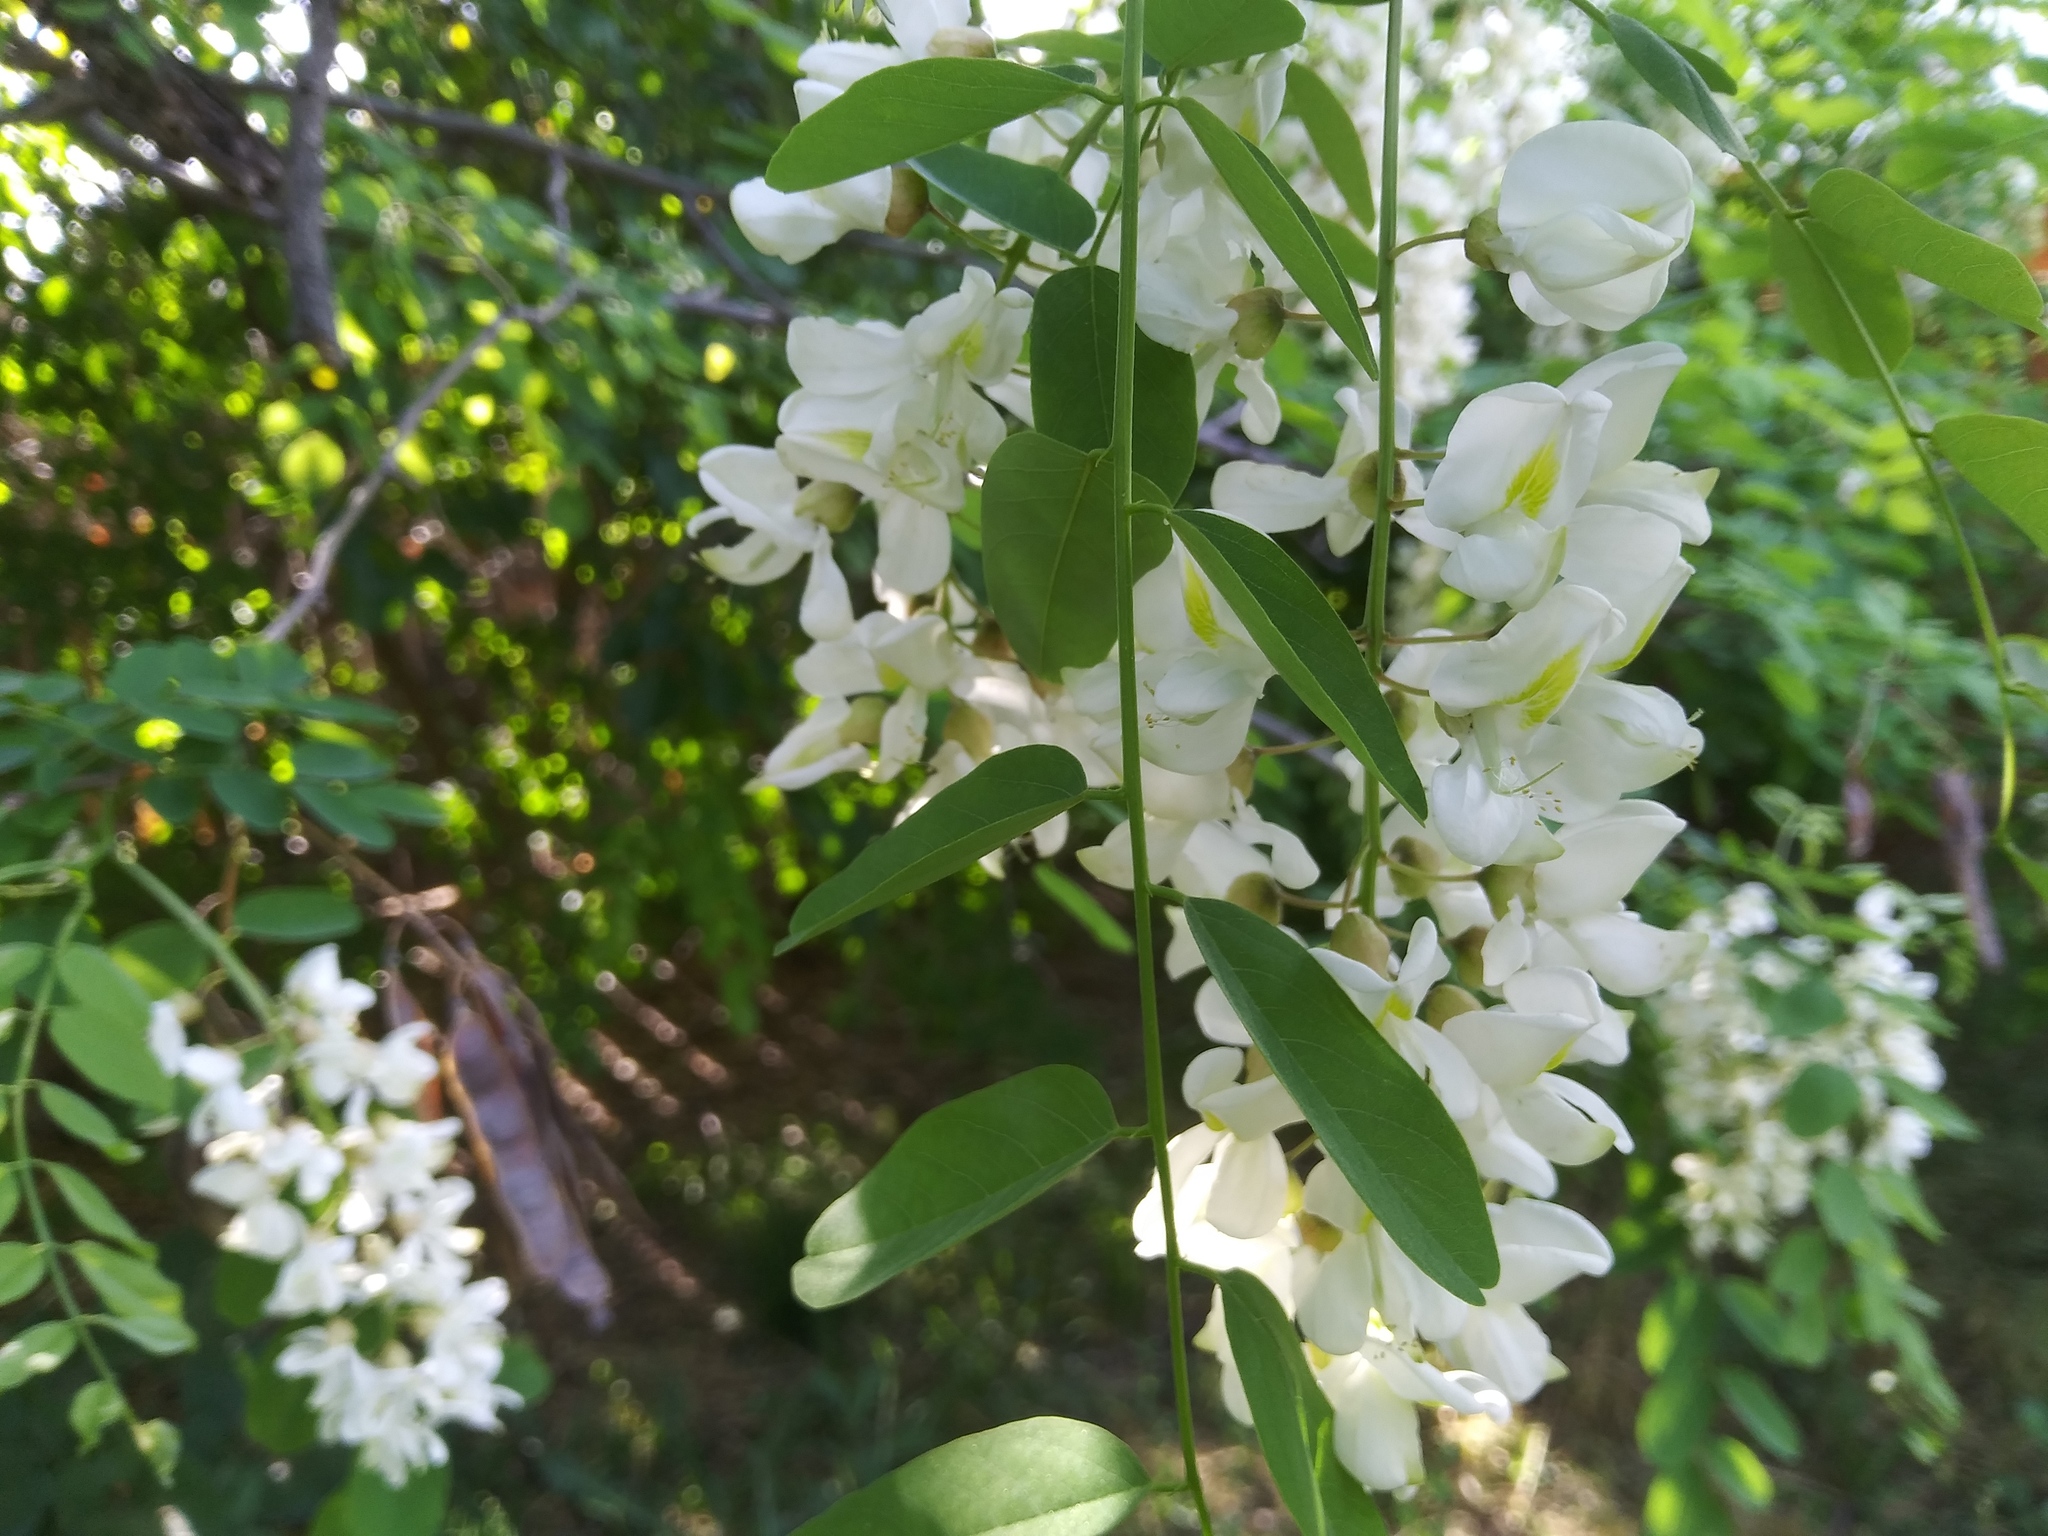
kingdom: Plantae
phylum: Tracheophyta
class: Magnoliopsida
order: Fabales
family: Fabaceae
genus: Robinia
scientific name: Robinia pseudoacacia
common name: Black locust
